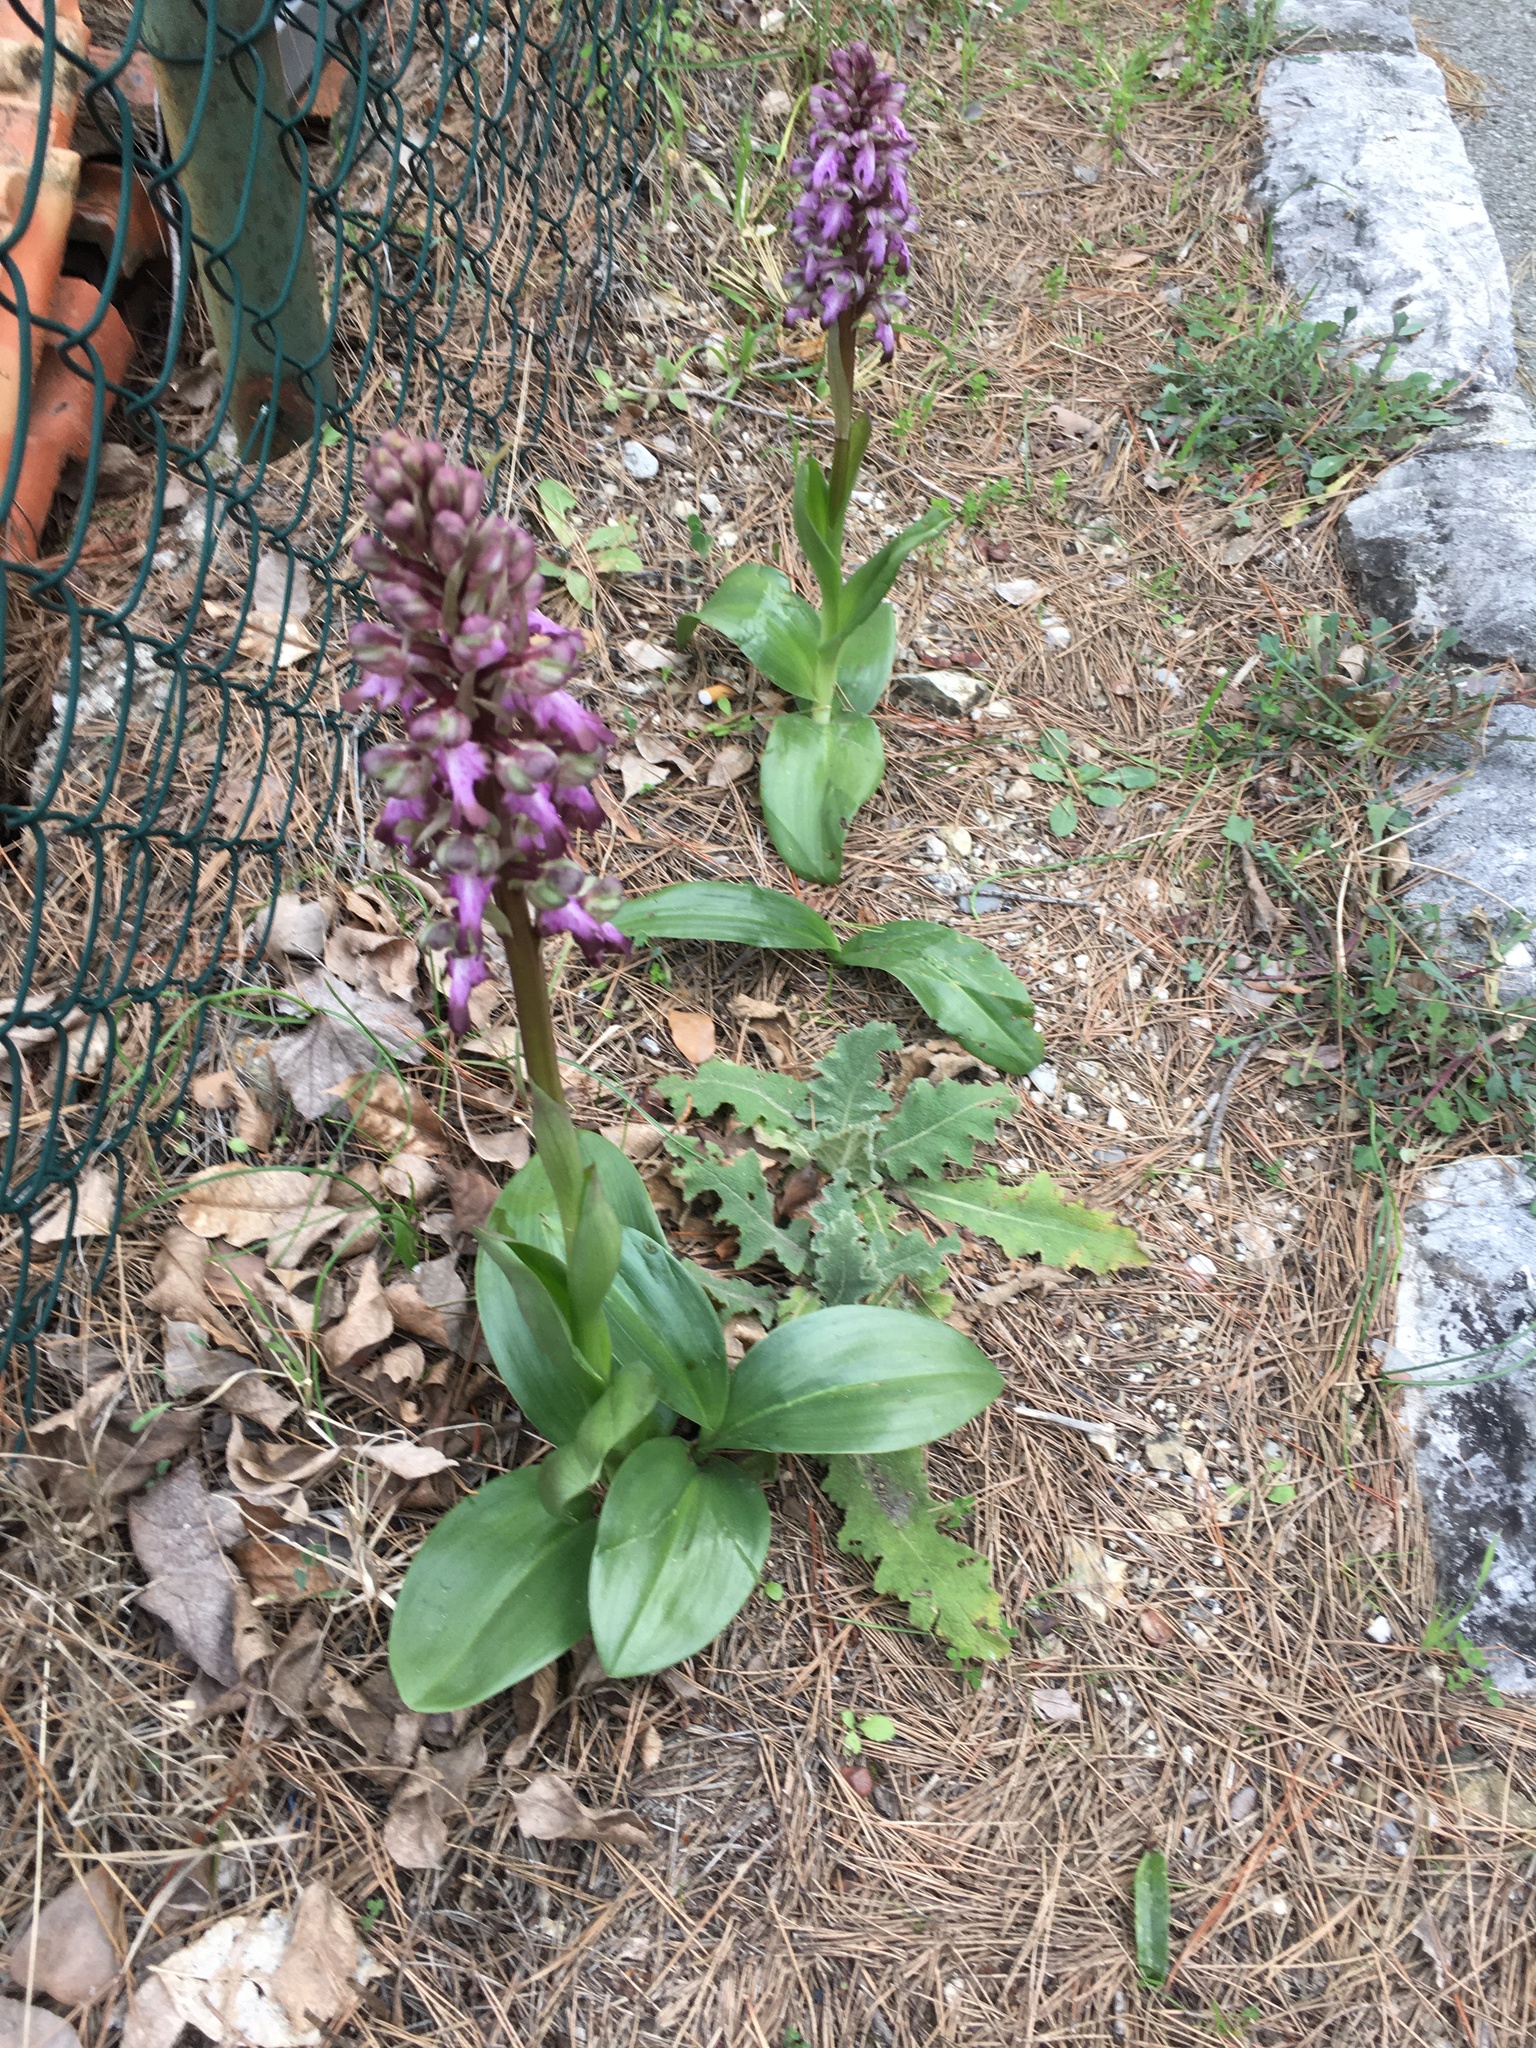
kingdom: Plantae
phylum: Tracheophyta
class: Liliopsida
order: Asparagales
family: Orchidaceae
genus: Himantoglossum
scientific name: Himantoglossum robertianum
